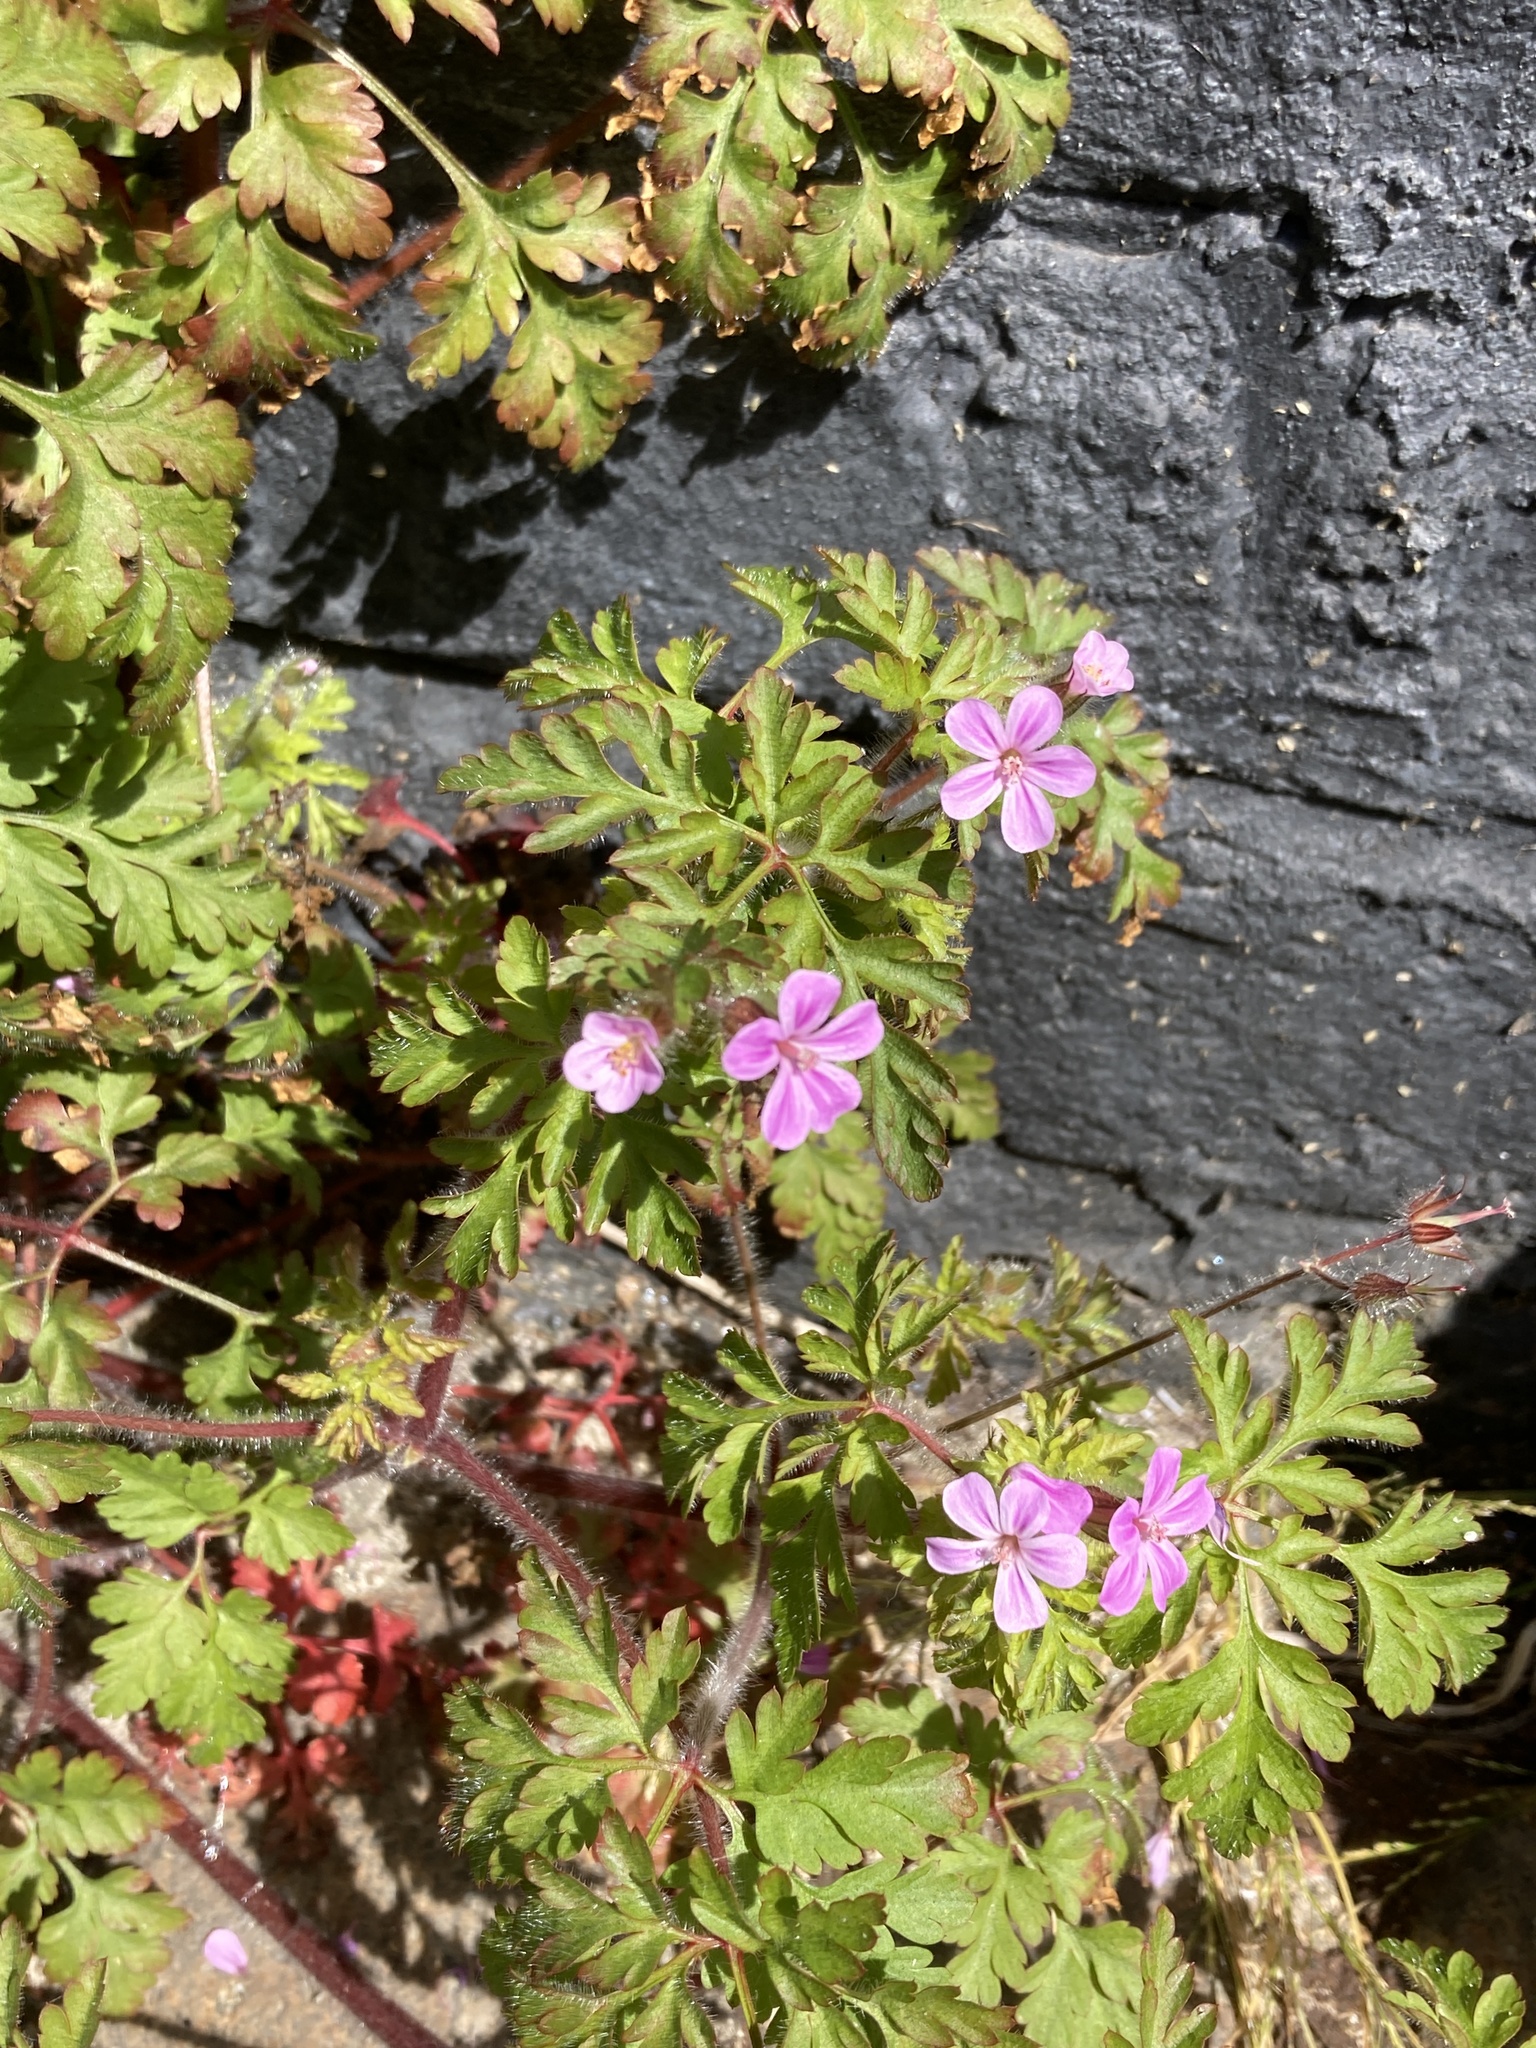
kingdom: Plantae
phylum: Tracheophyta
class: Magnoliopsida
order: Geraniales
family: Geraniaceae
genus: Geranium
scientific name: Geranium robertianum
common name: Herb-robert
